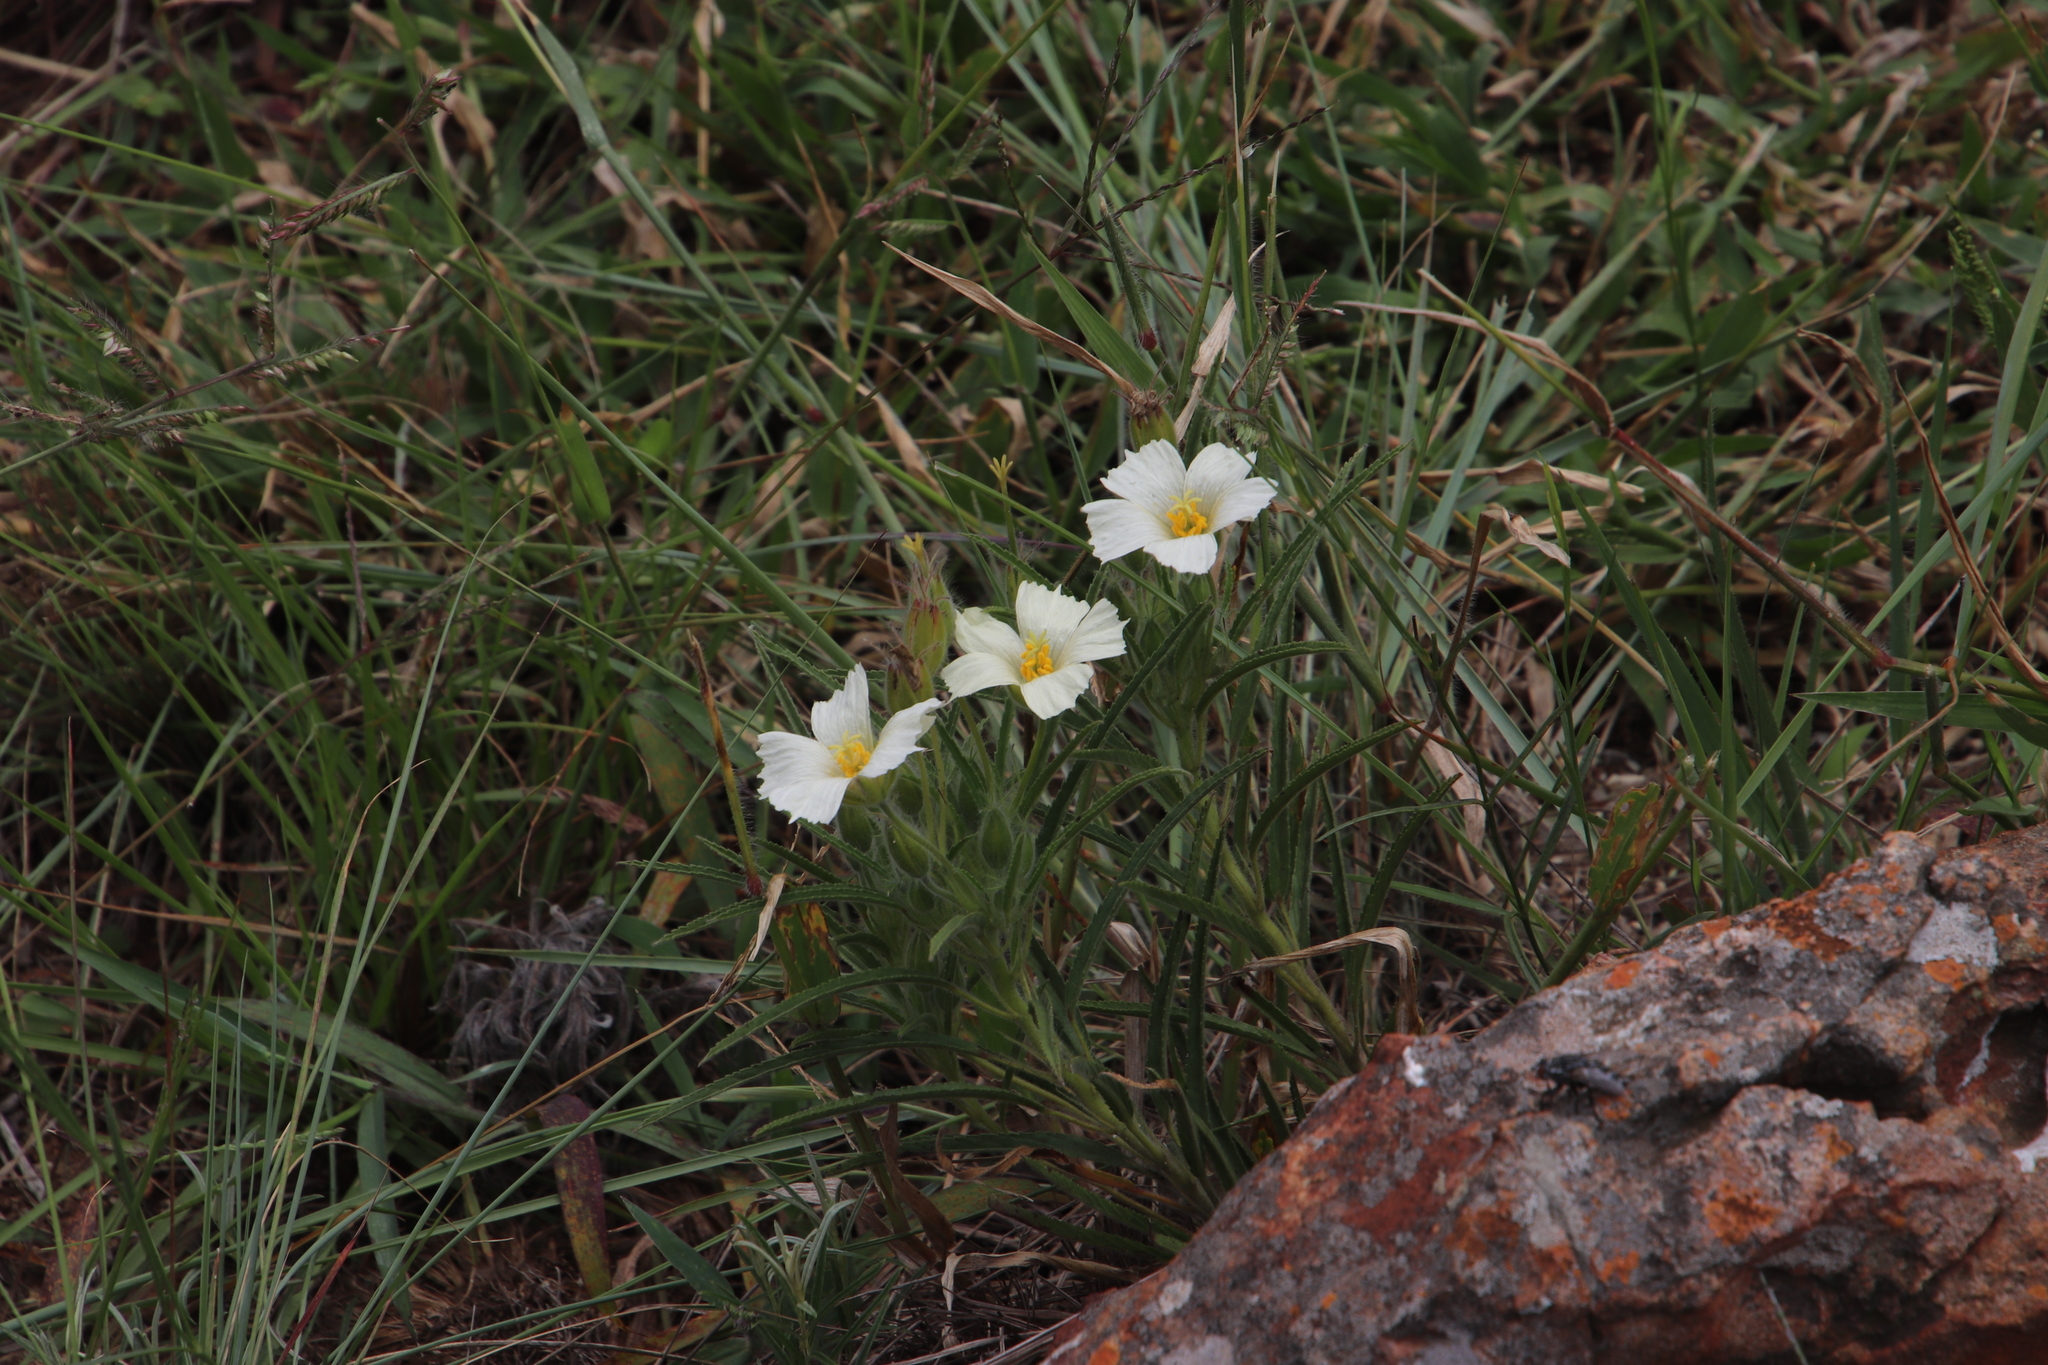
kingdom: Plantae
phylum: Tracheophyta
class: Magnoliopsida
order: Geraniales
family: Geraniaceae
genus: Monsonia
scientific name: Monsonia attenuata
